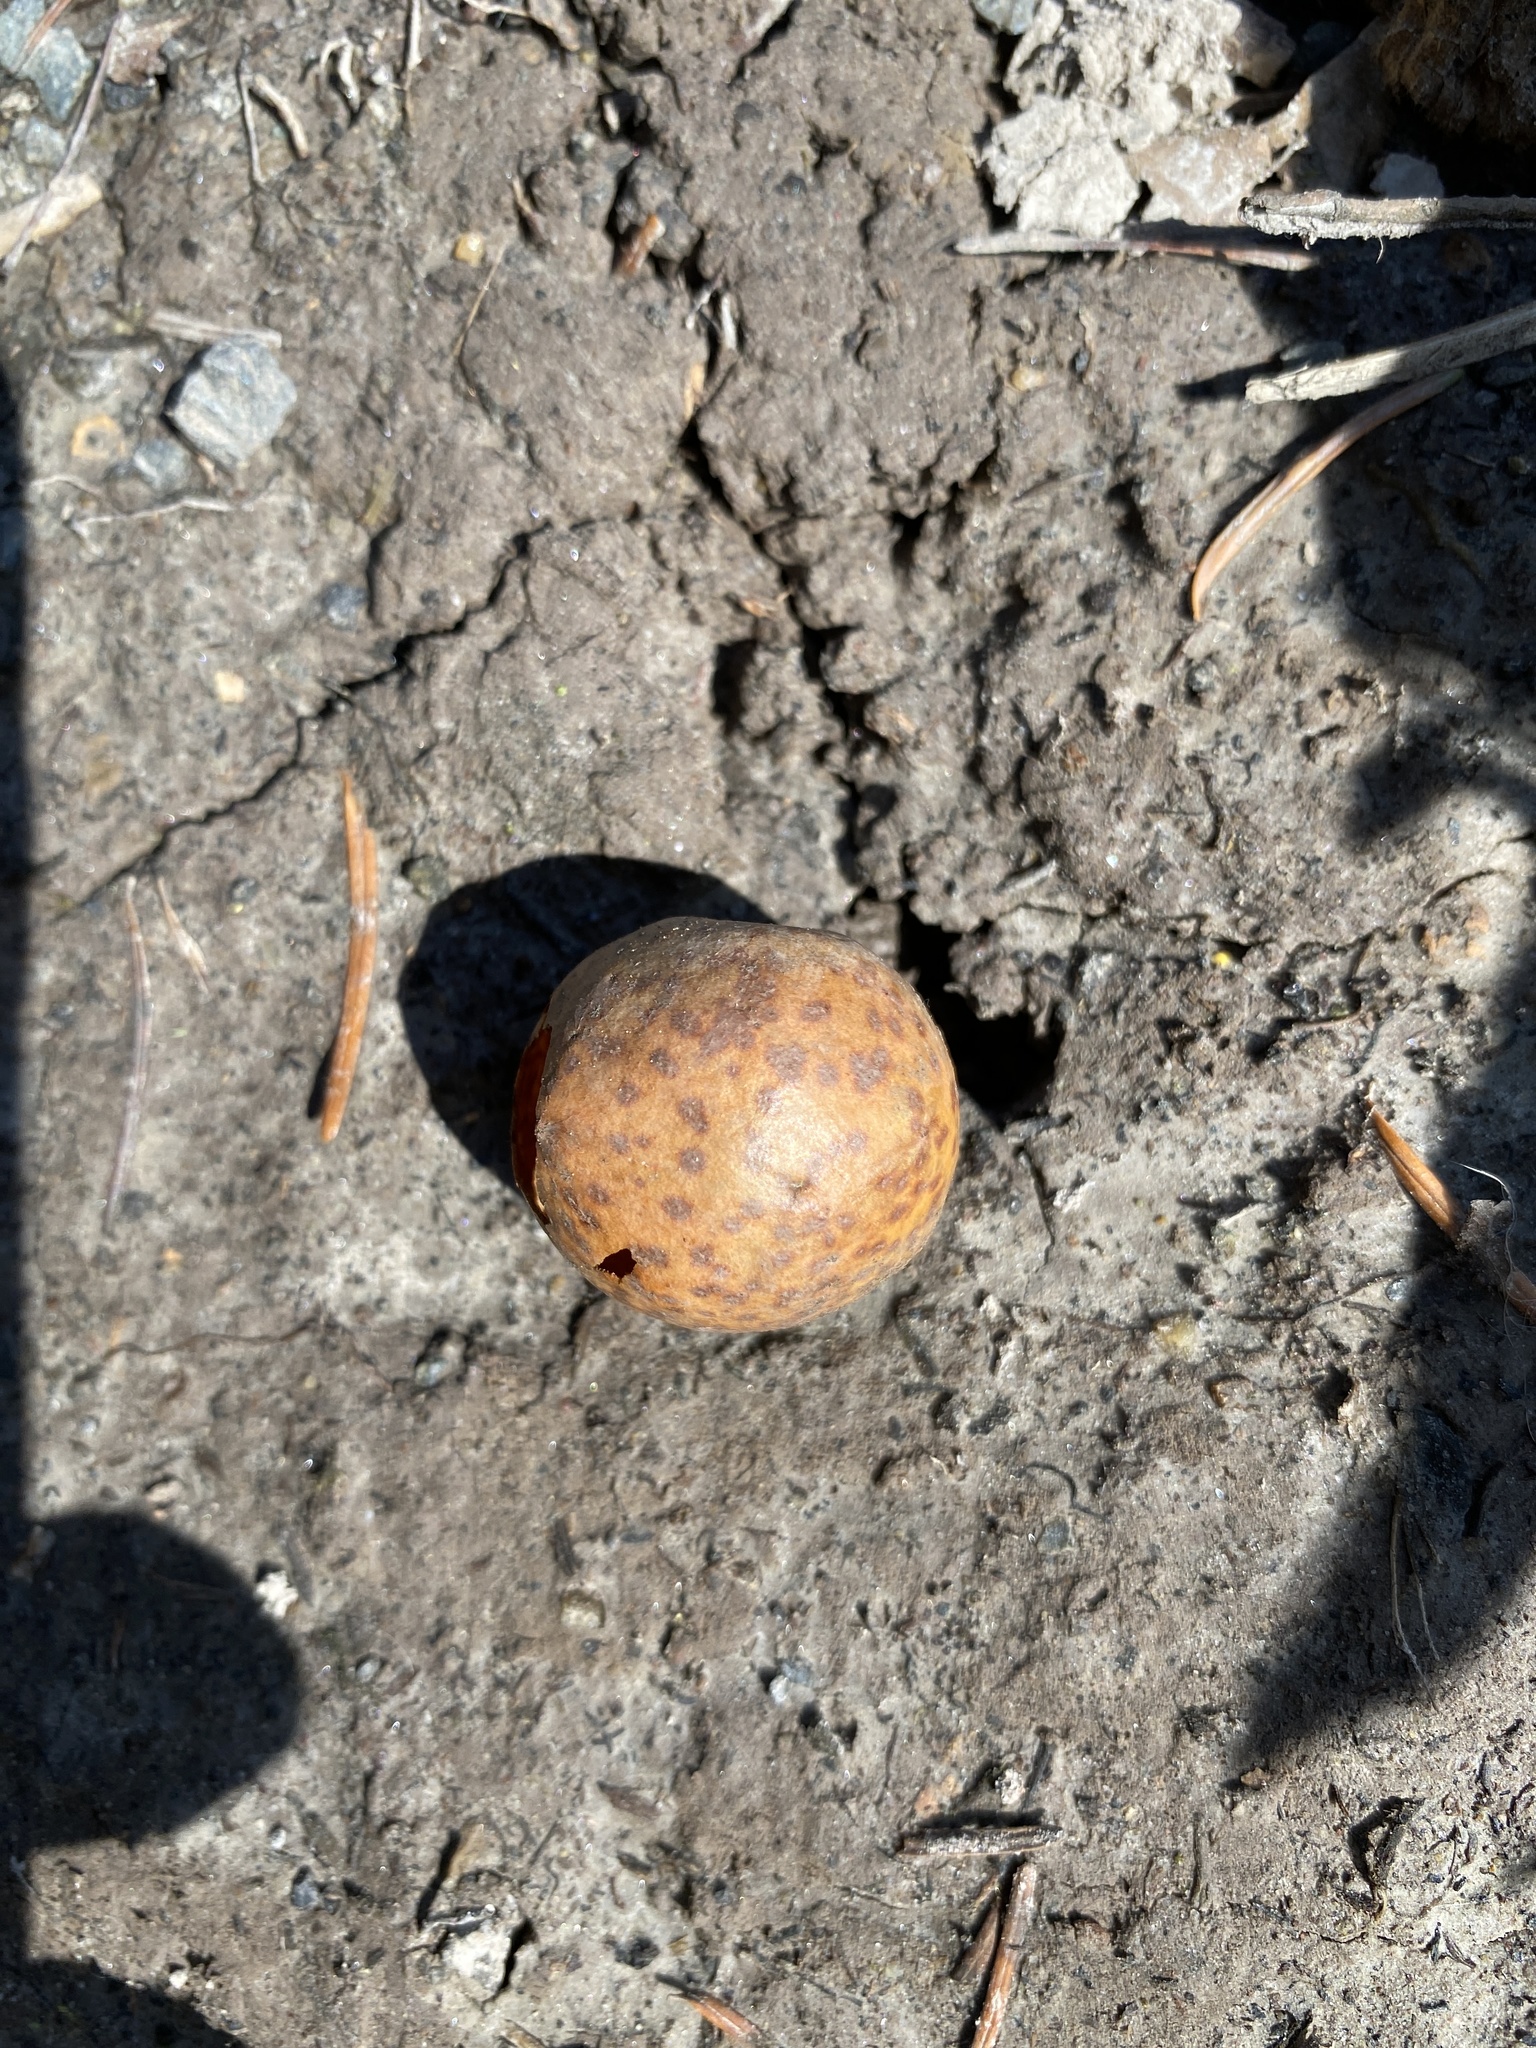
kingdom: Animalia
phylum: Arthropoda
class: Insecta
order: Hymenoptera
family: Cynipidae
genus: Cynips
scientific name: Cynips
